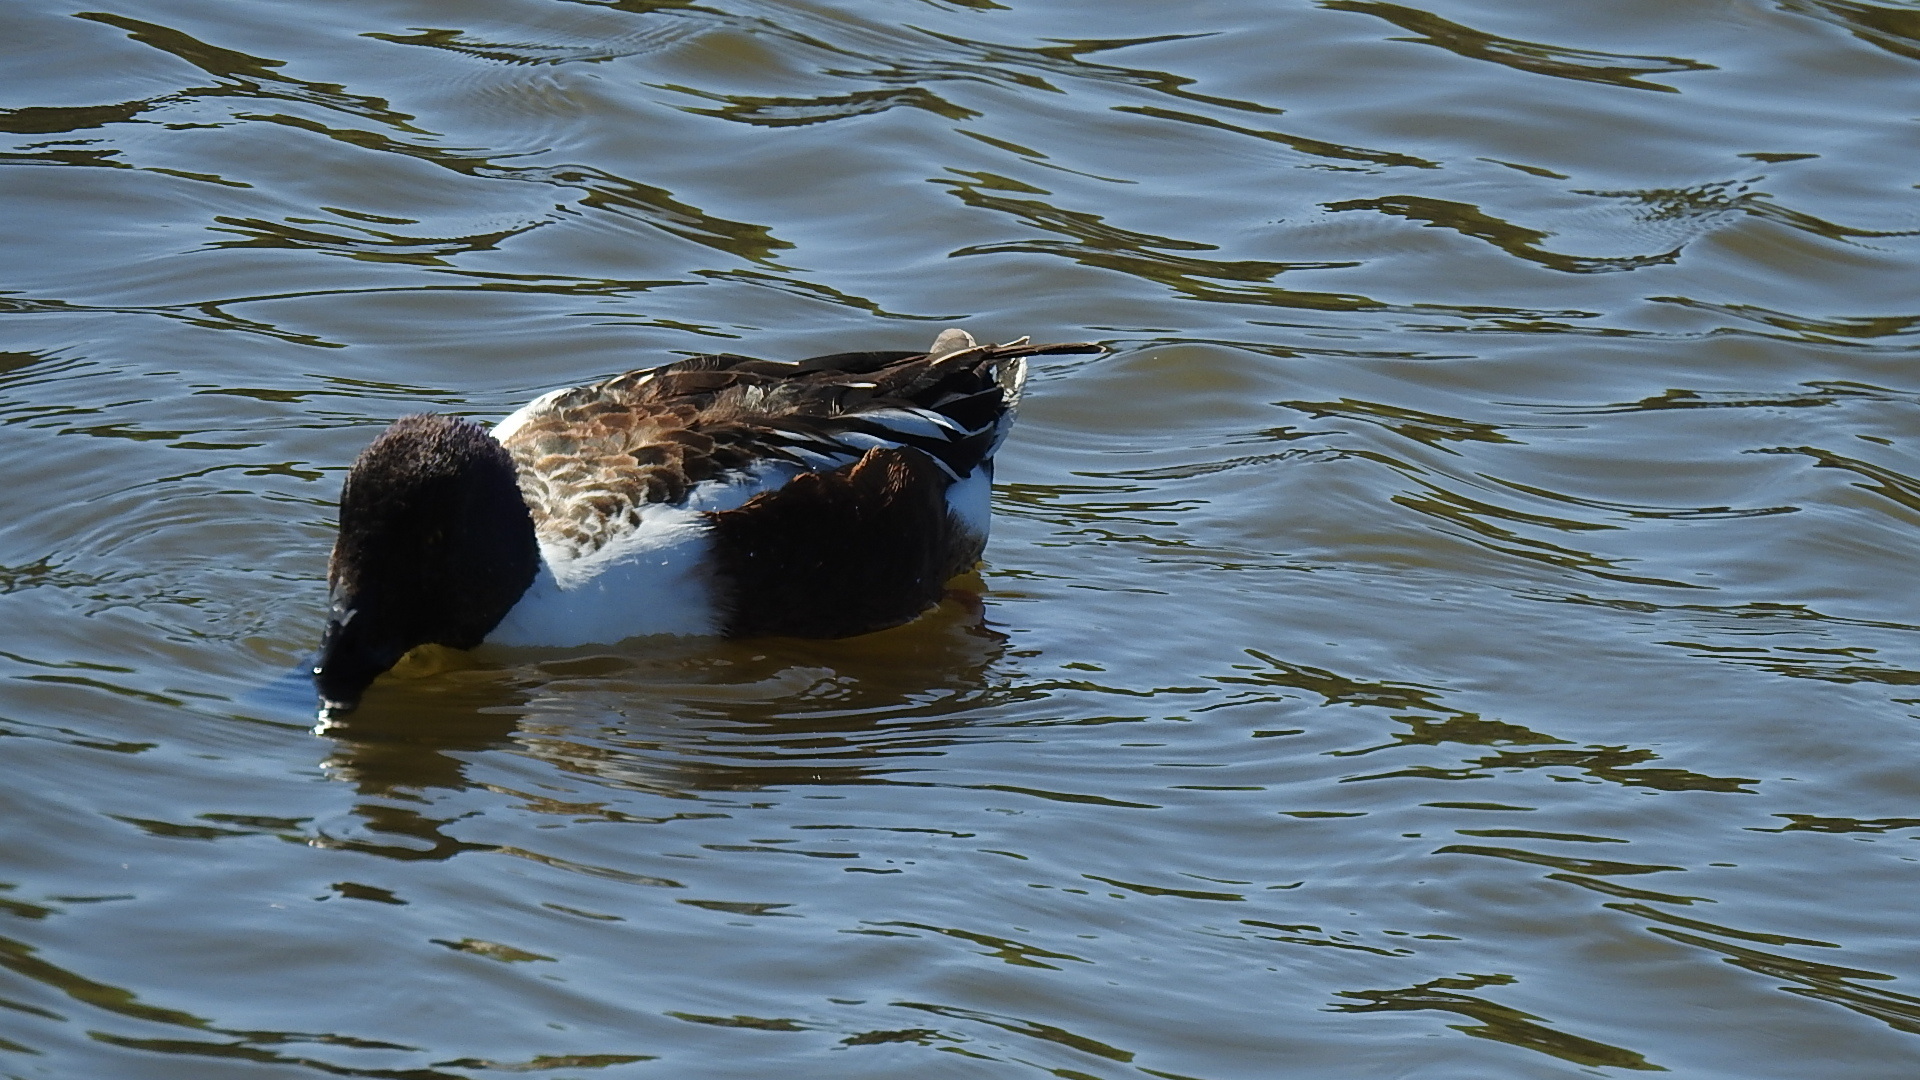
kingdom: Animalia
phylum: Chordata
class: Aves
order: Anseriformes
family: Anatidae
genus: Spatula
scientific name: Spatula clypeata
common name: Northern shoveler
